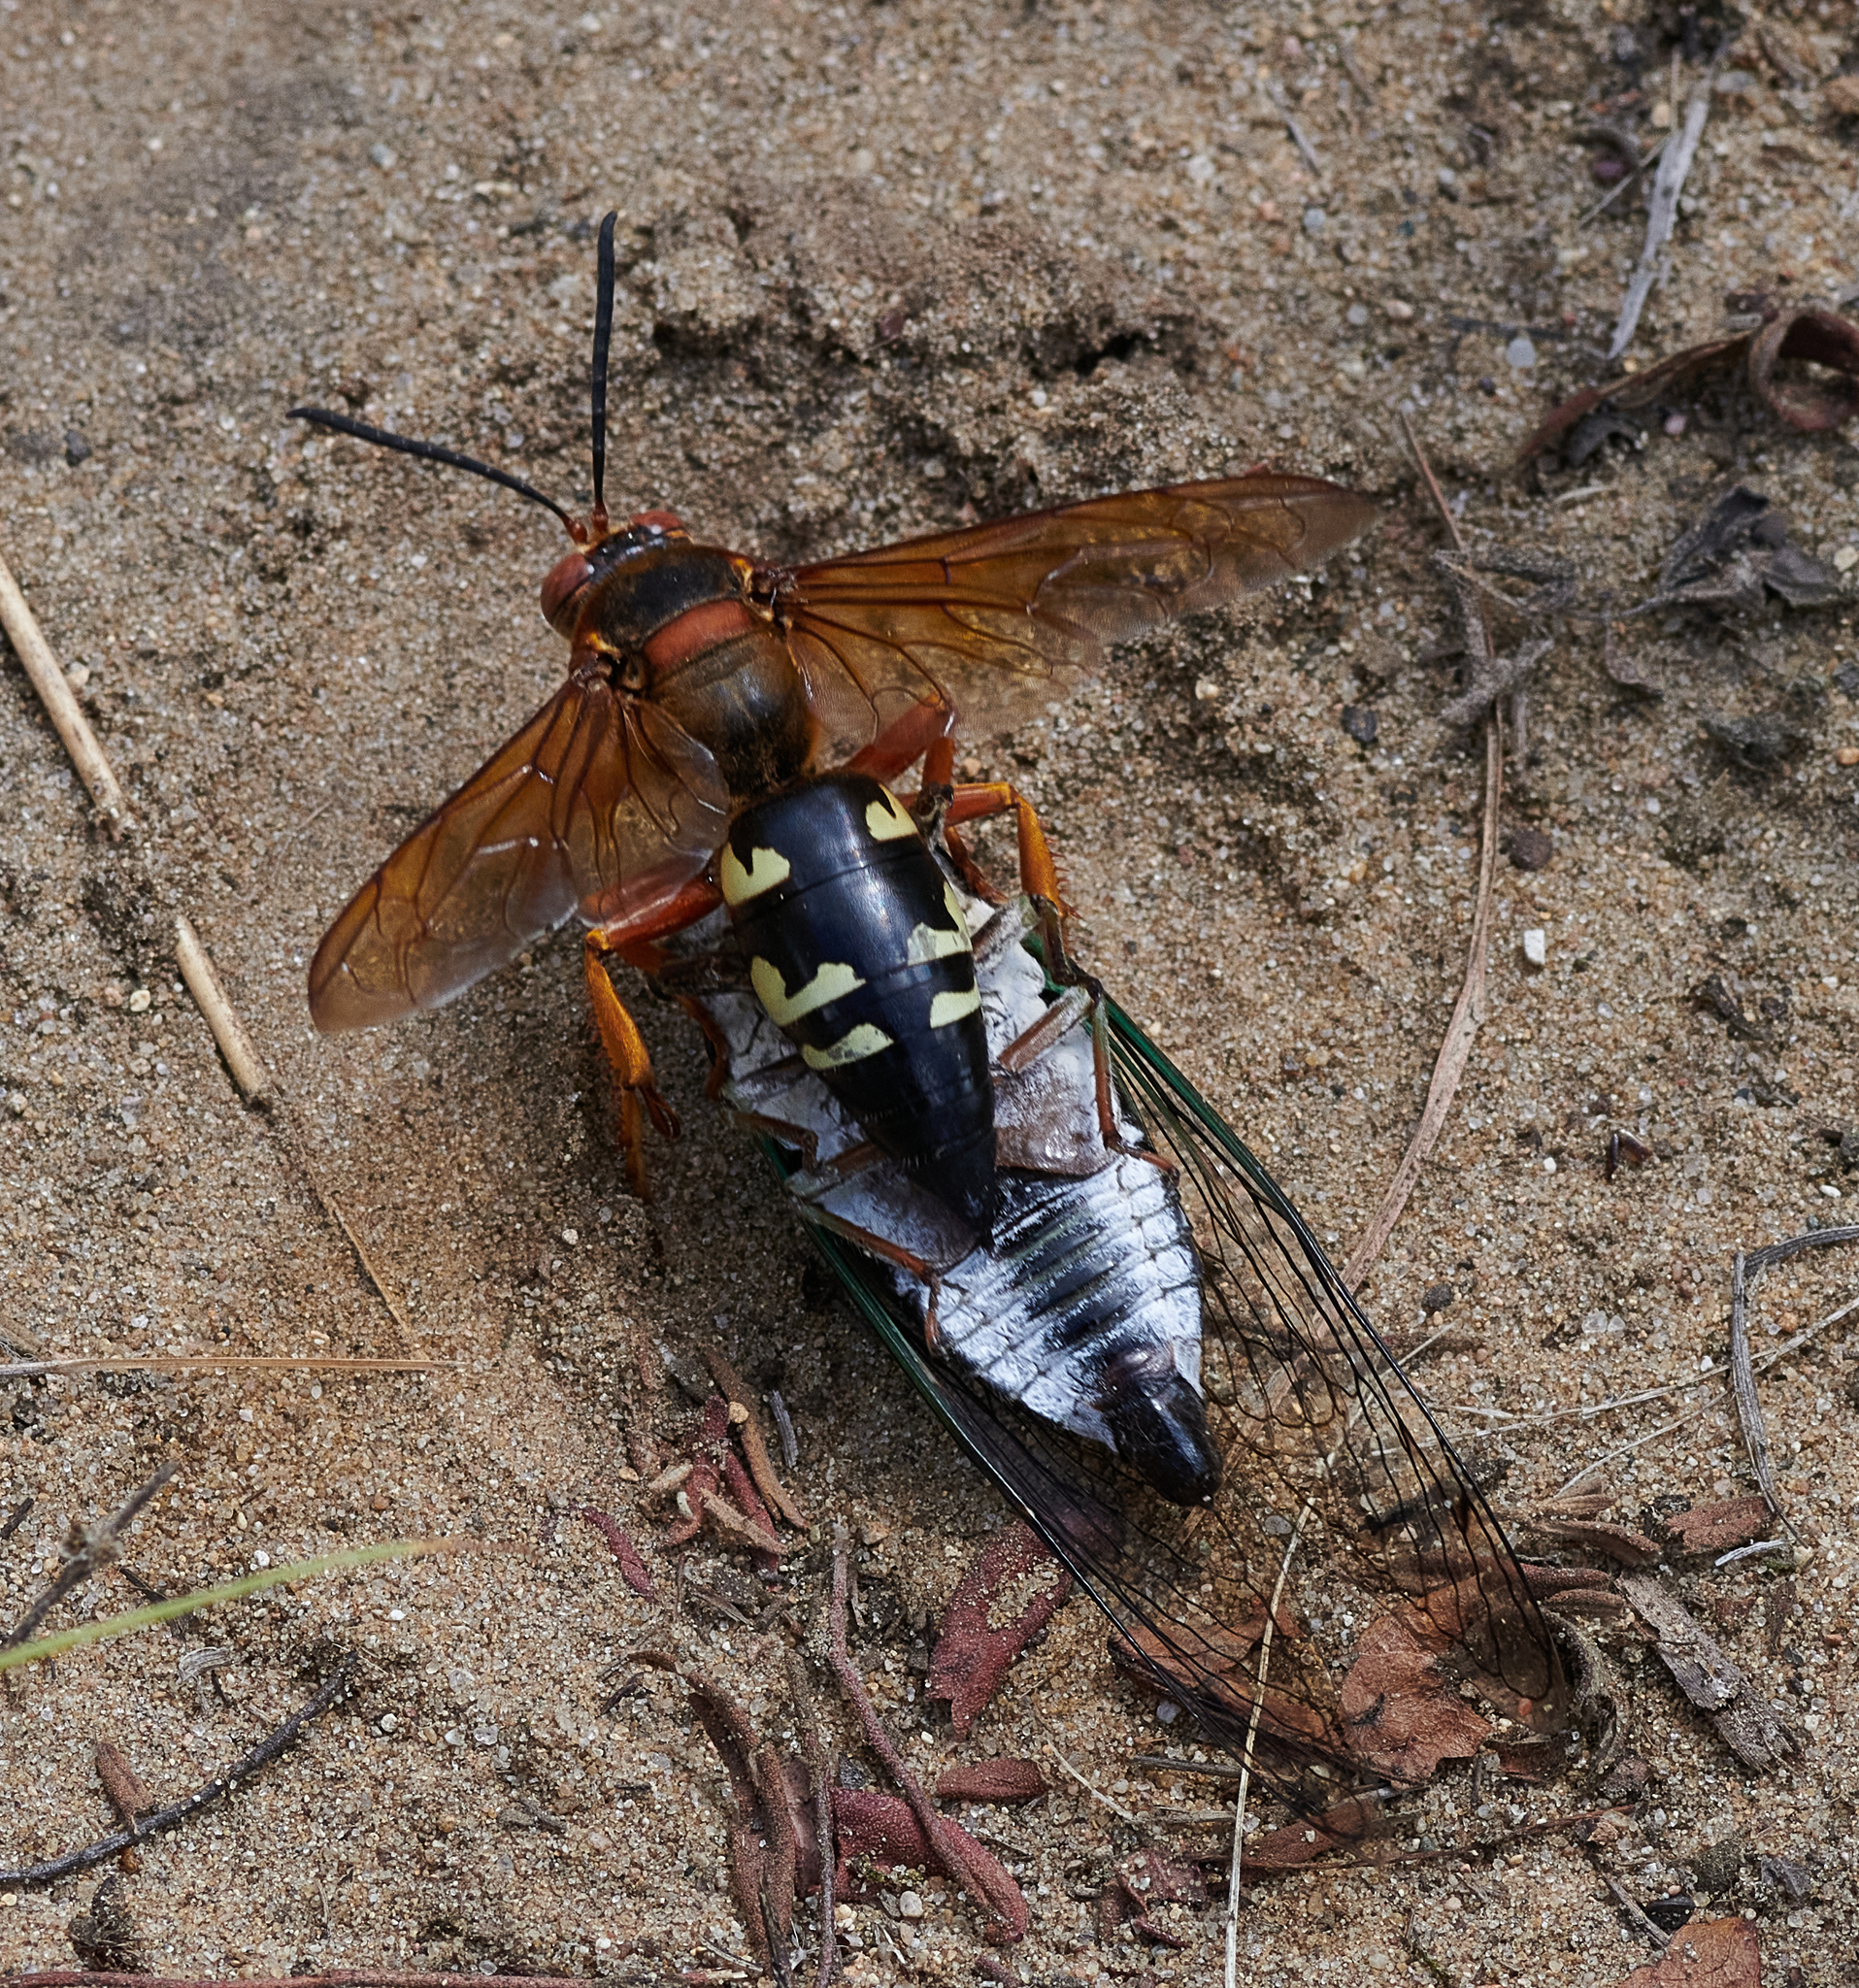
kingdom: Animalia
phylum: Arthropoda
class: Insecta
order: Hymenoptera
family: Crabronidae
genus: Sphecius
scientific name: Sphecius speciosus
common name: Cicada killer
